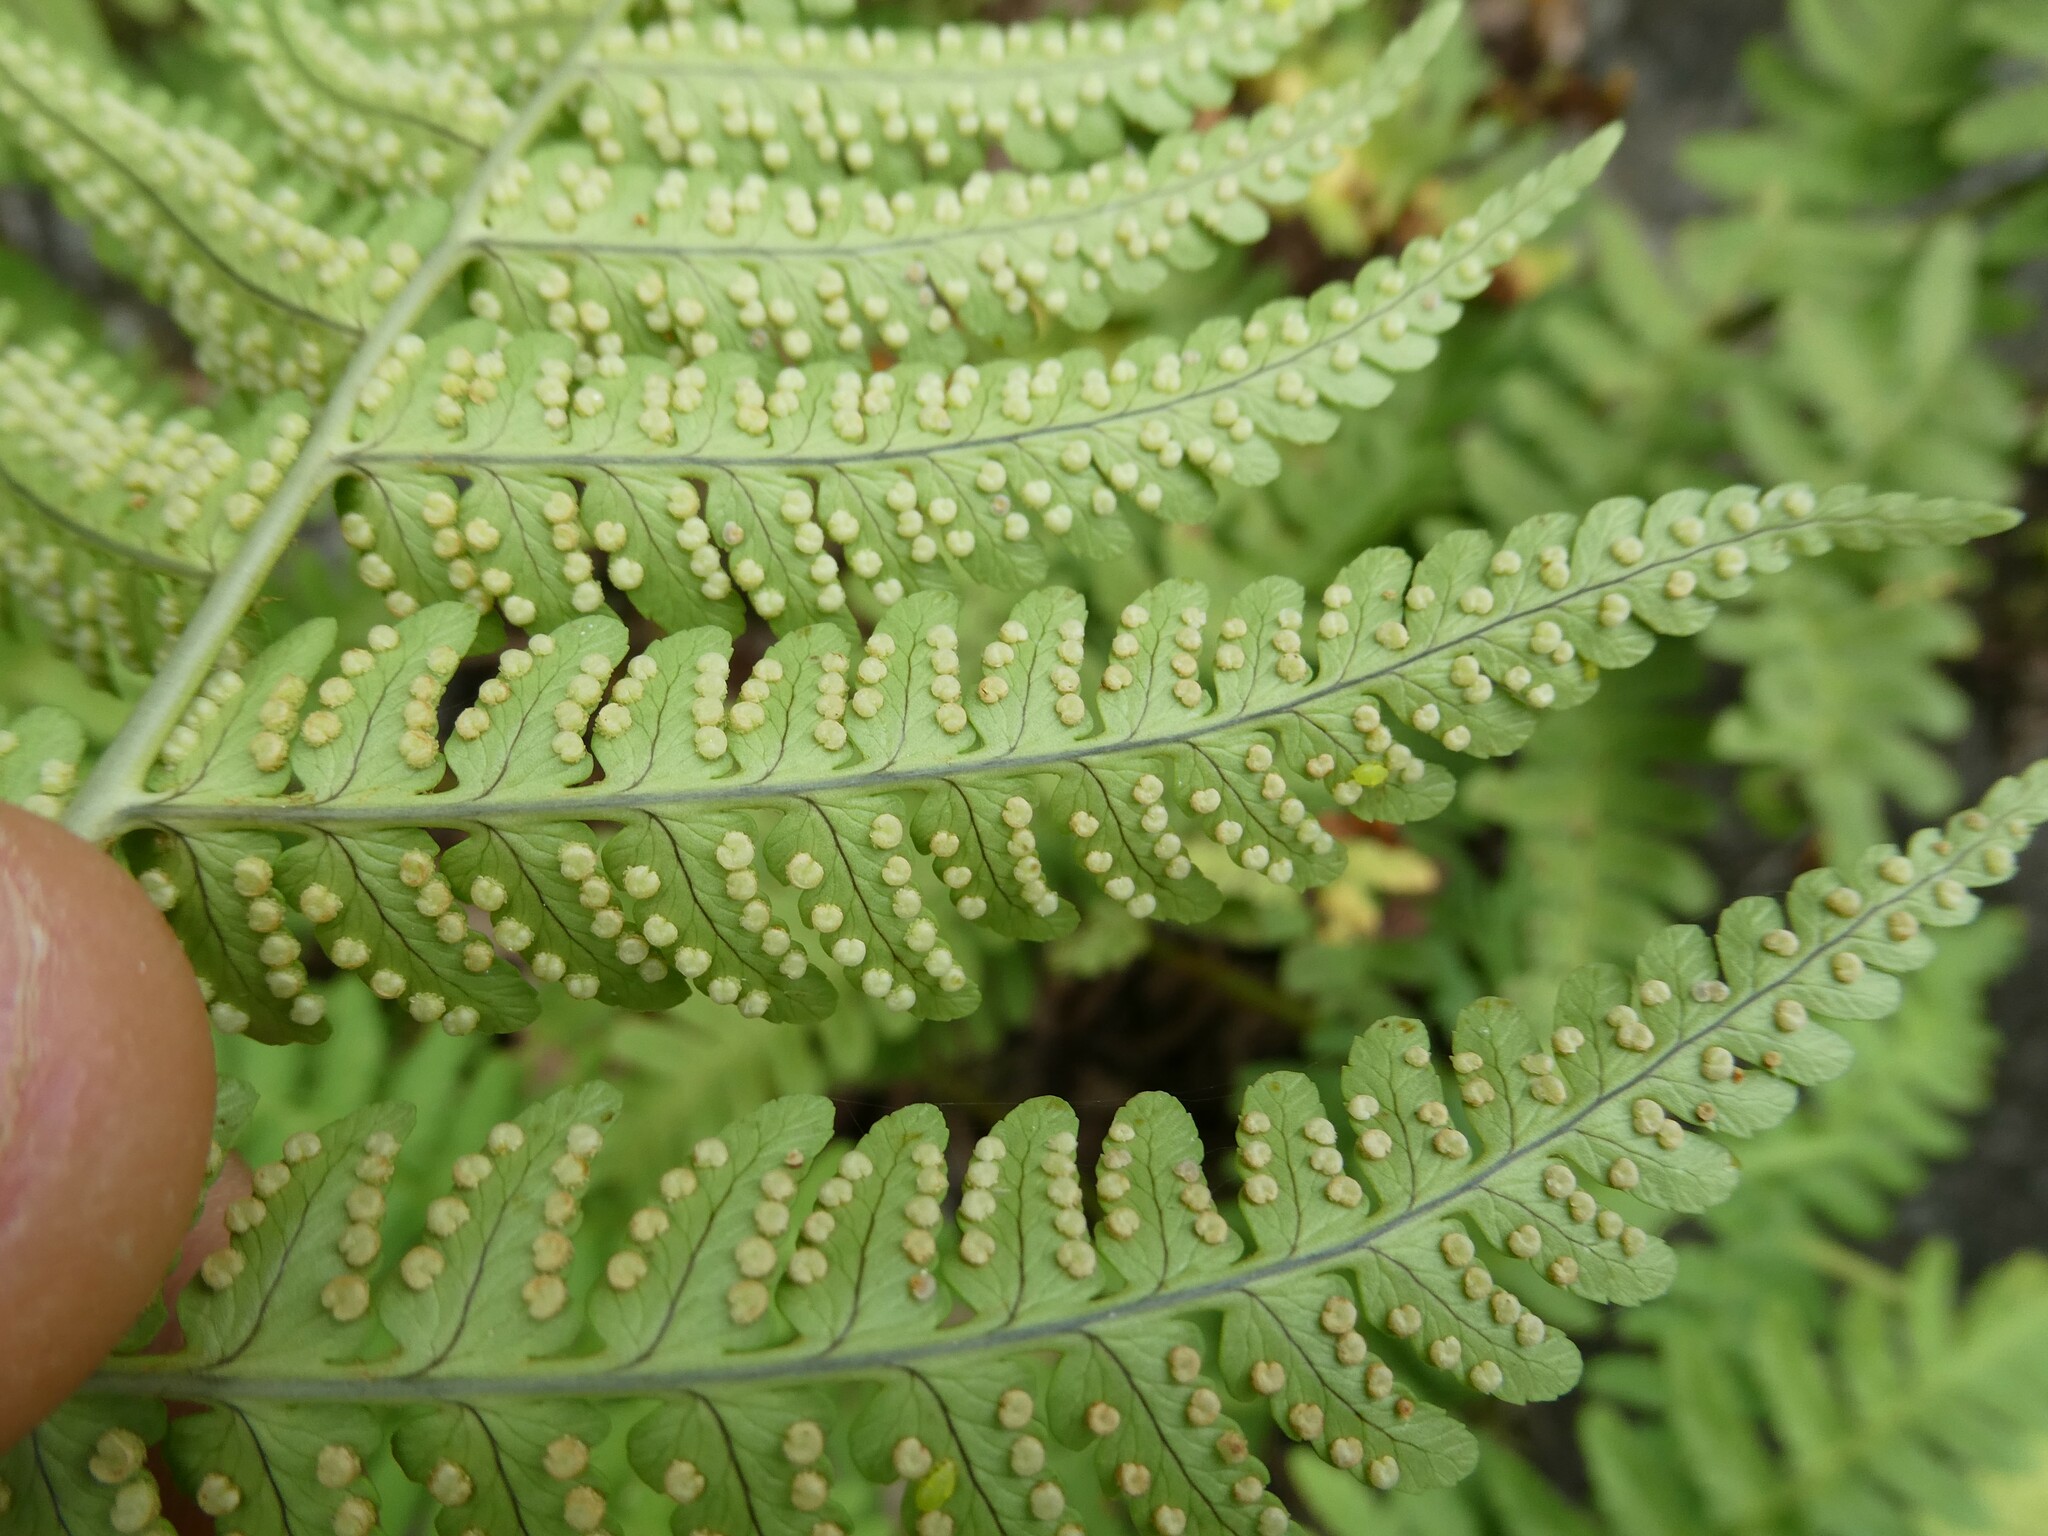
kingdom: Plantae
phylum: Tracheophyta
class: Polypodiopsida
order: Polypodiales
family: Dryopteridaceae
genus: Dryopteris
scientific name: Dryopteris marginalis
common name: Marginal wood fern
